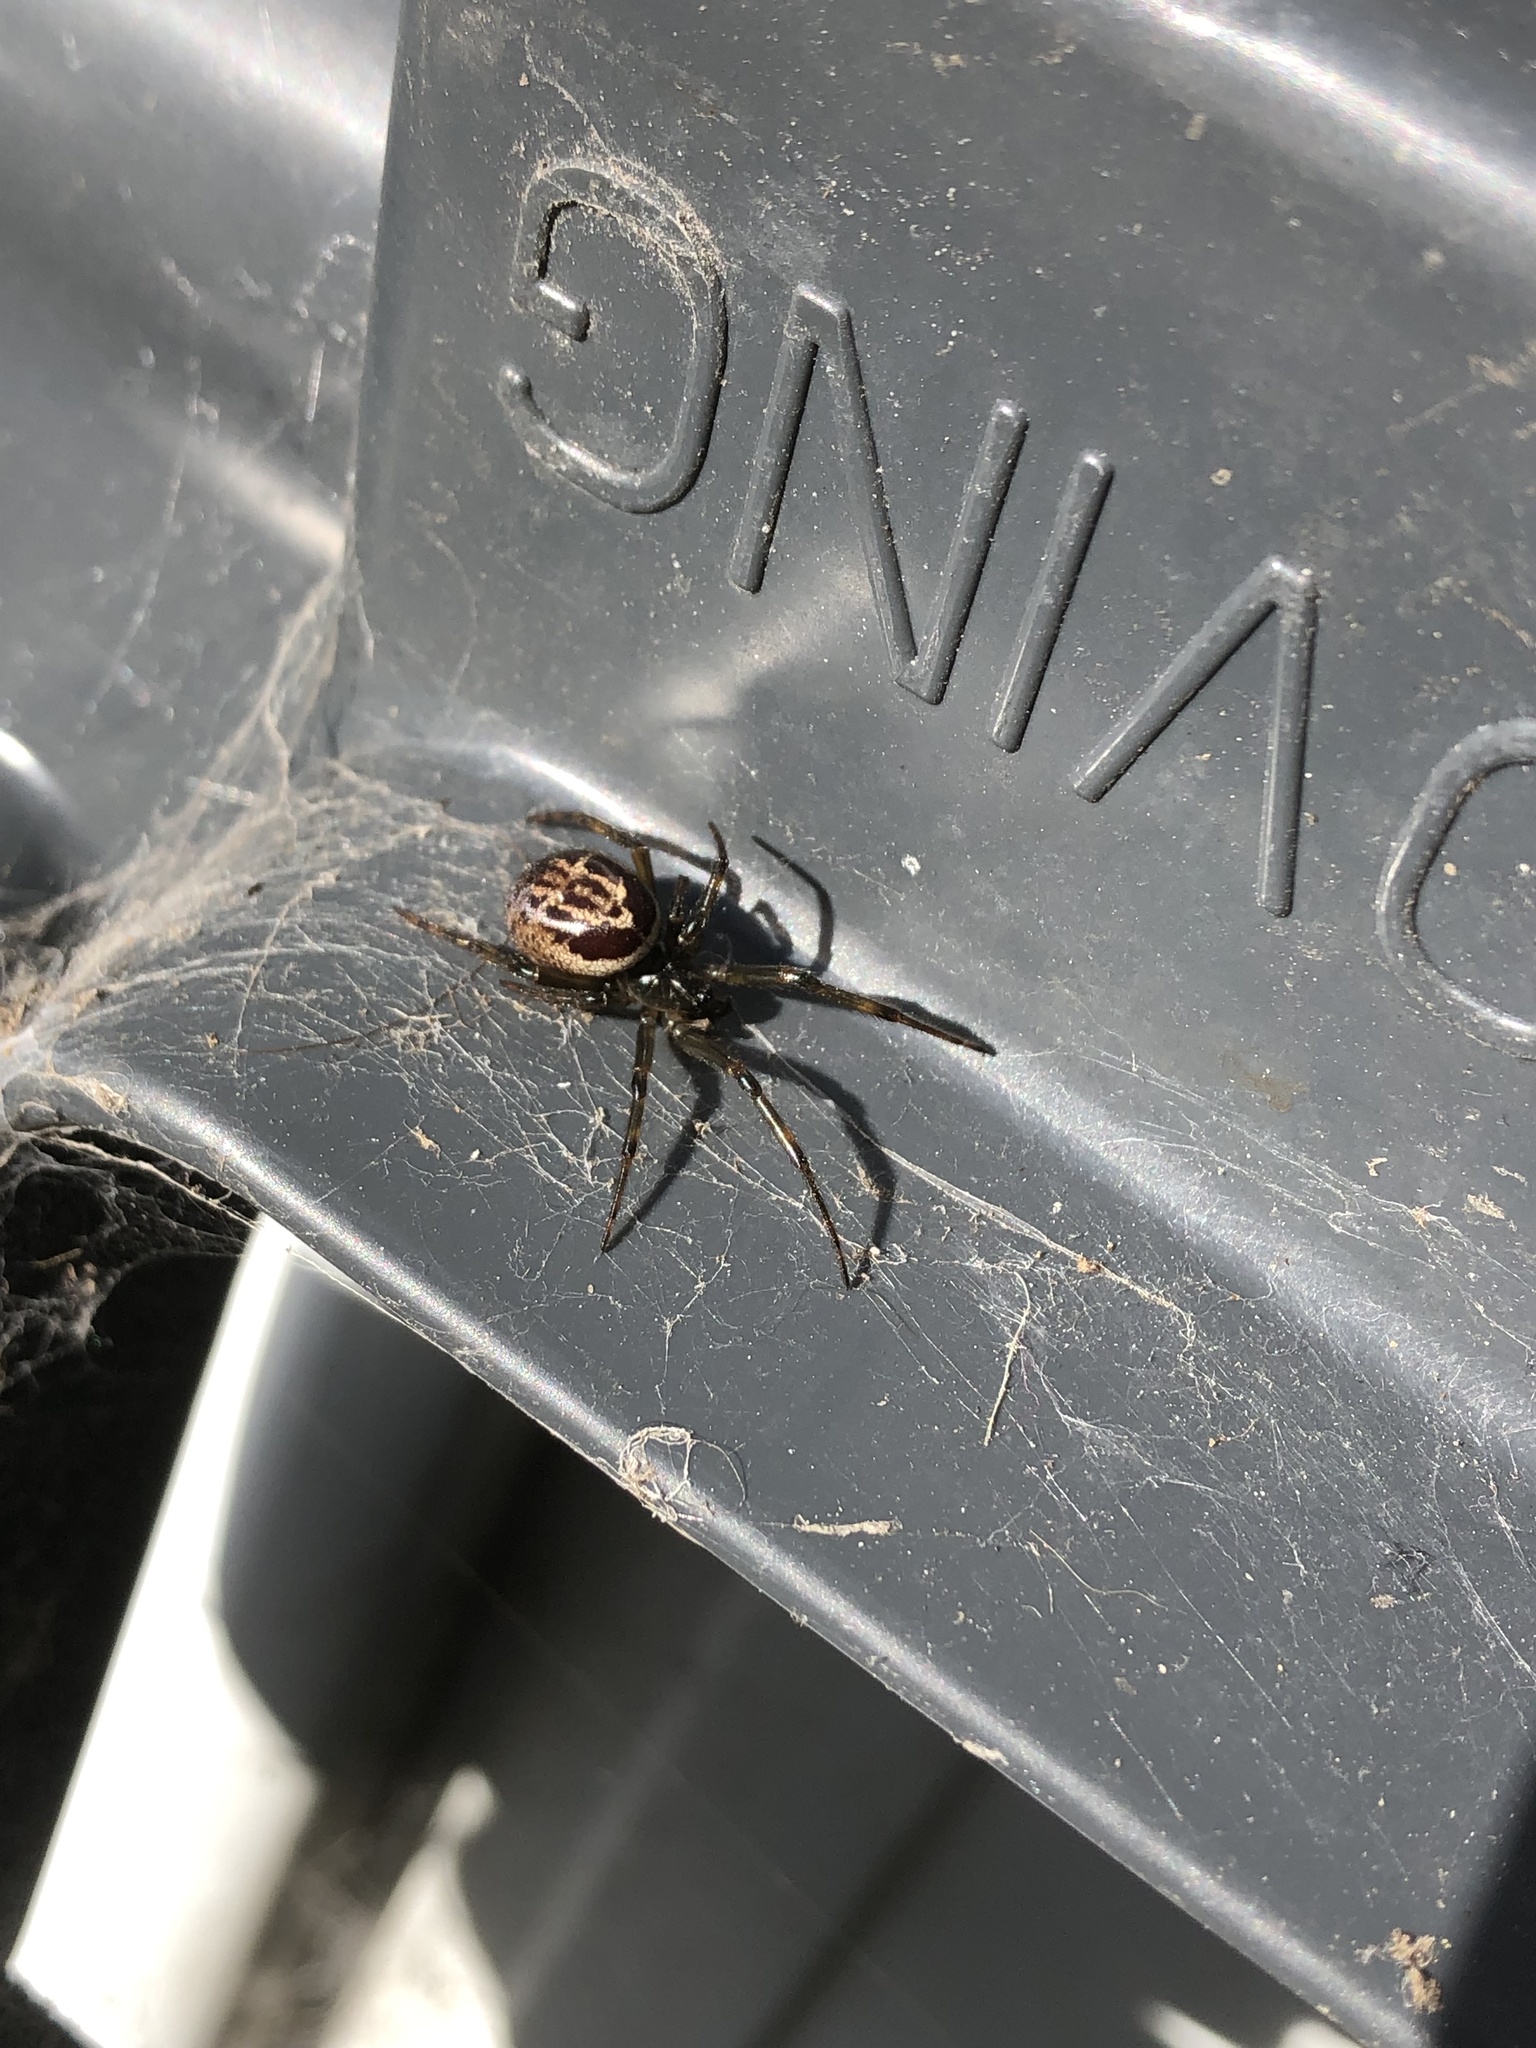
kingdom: Animalia
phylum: Arthropoda
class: Arachnida
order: Araneae
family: Theridiidae
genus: Steatoda
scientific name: Steatoda nobilis
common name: Cobweb weaver
